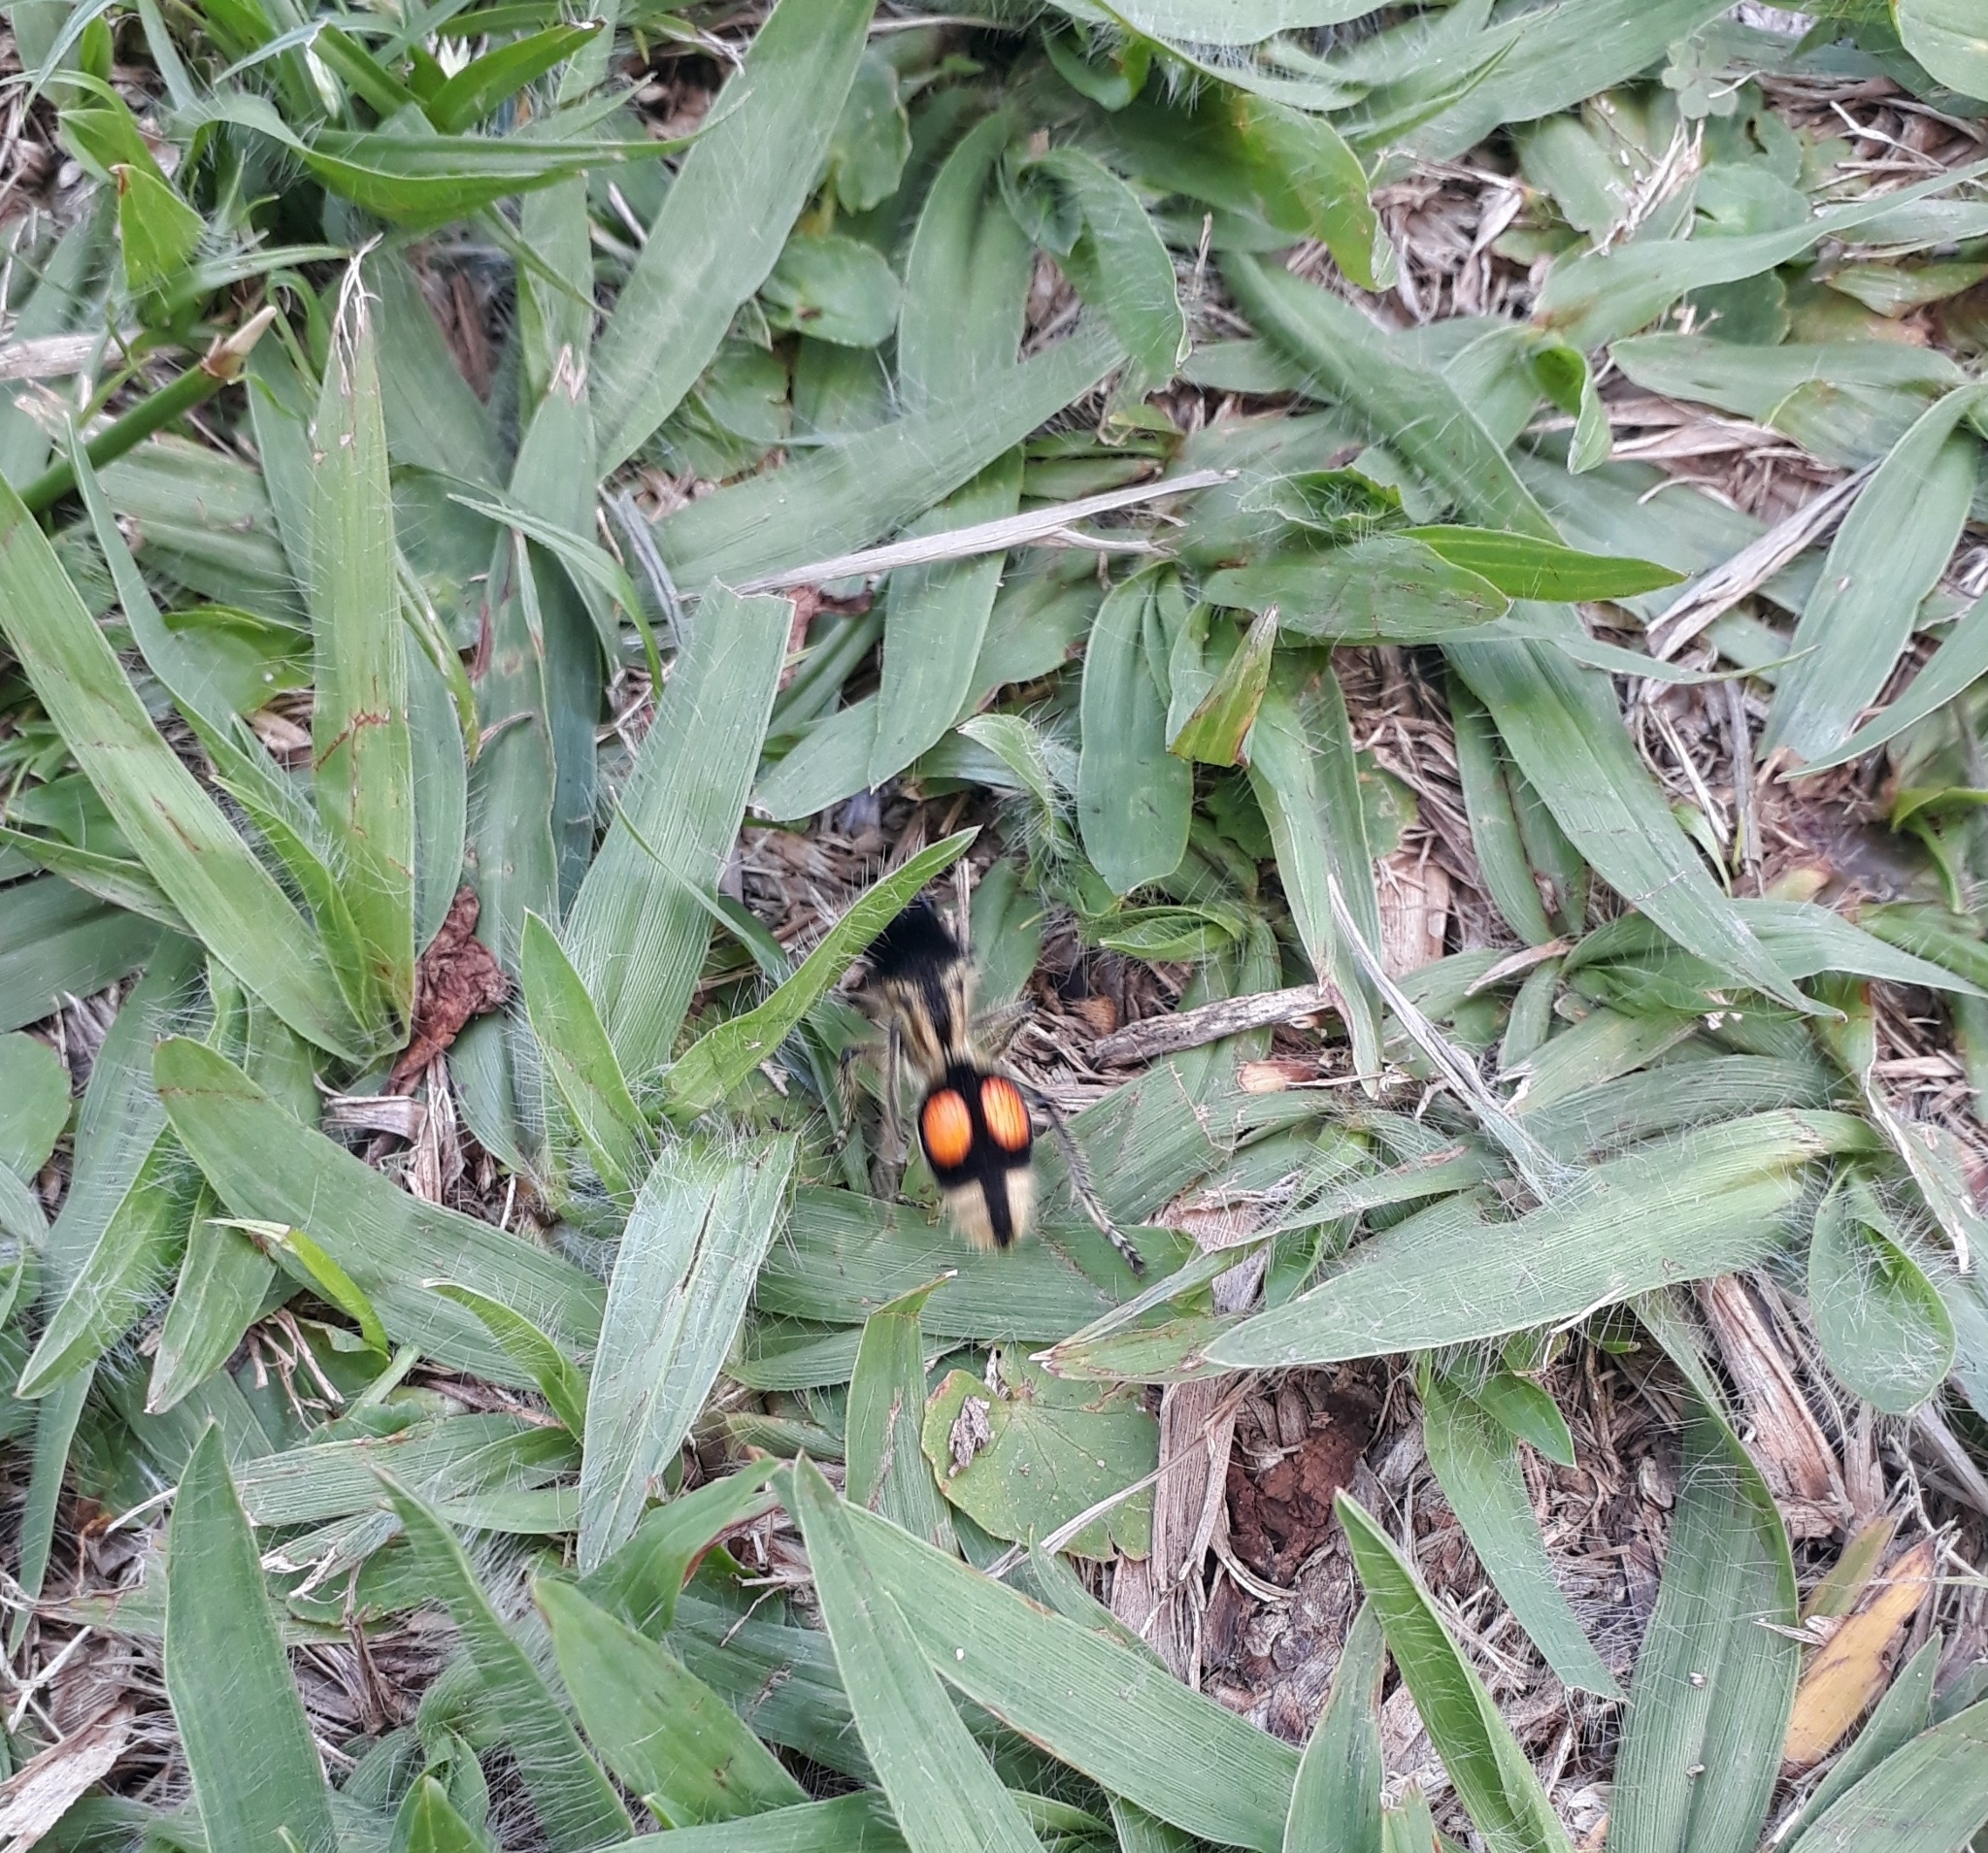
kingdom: Animalia
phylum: Arthropoda
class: Insecta
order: Hymenoptera
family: Mutillidae
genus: Hoplomutilla
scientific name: Hoplomutilla
